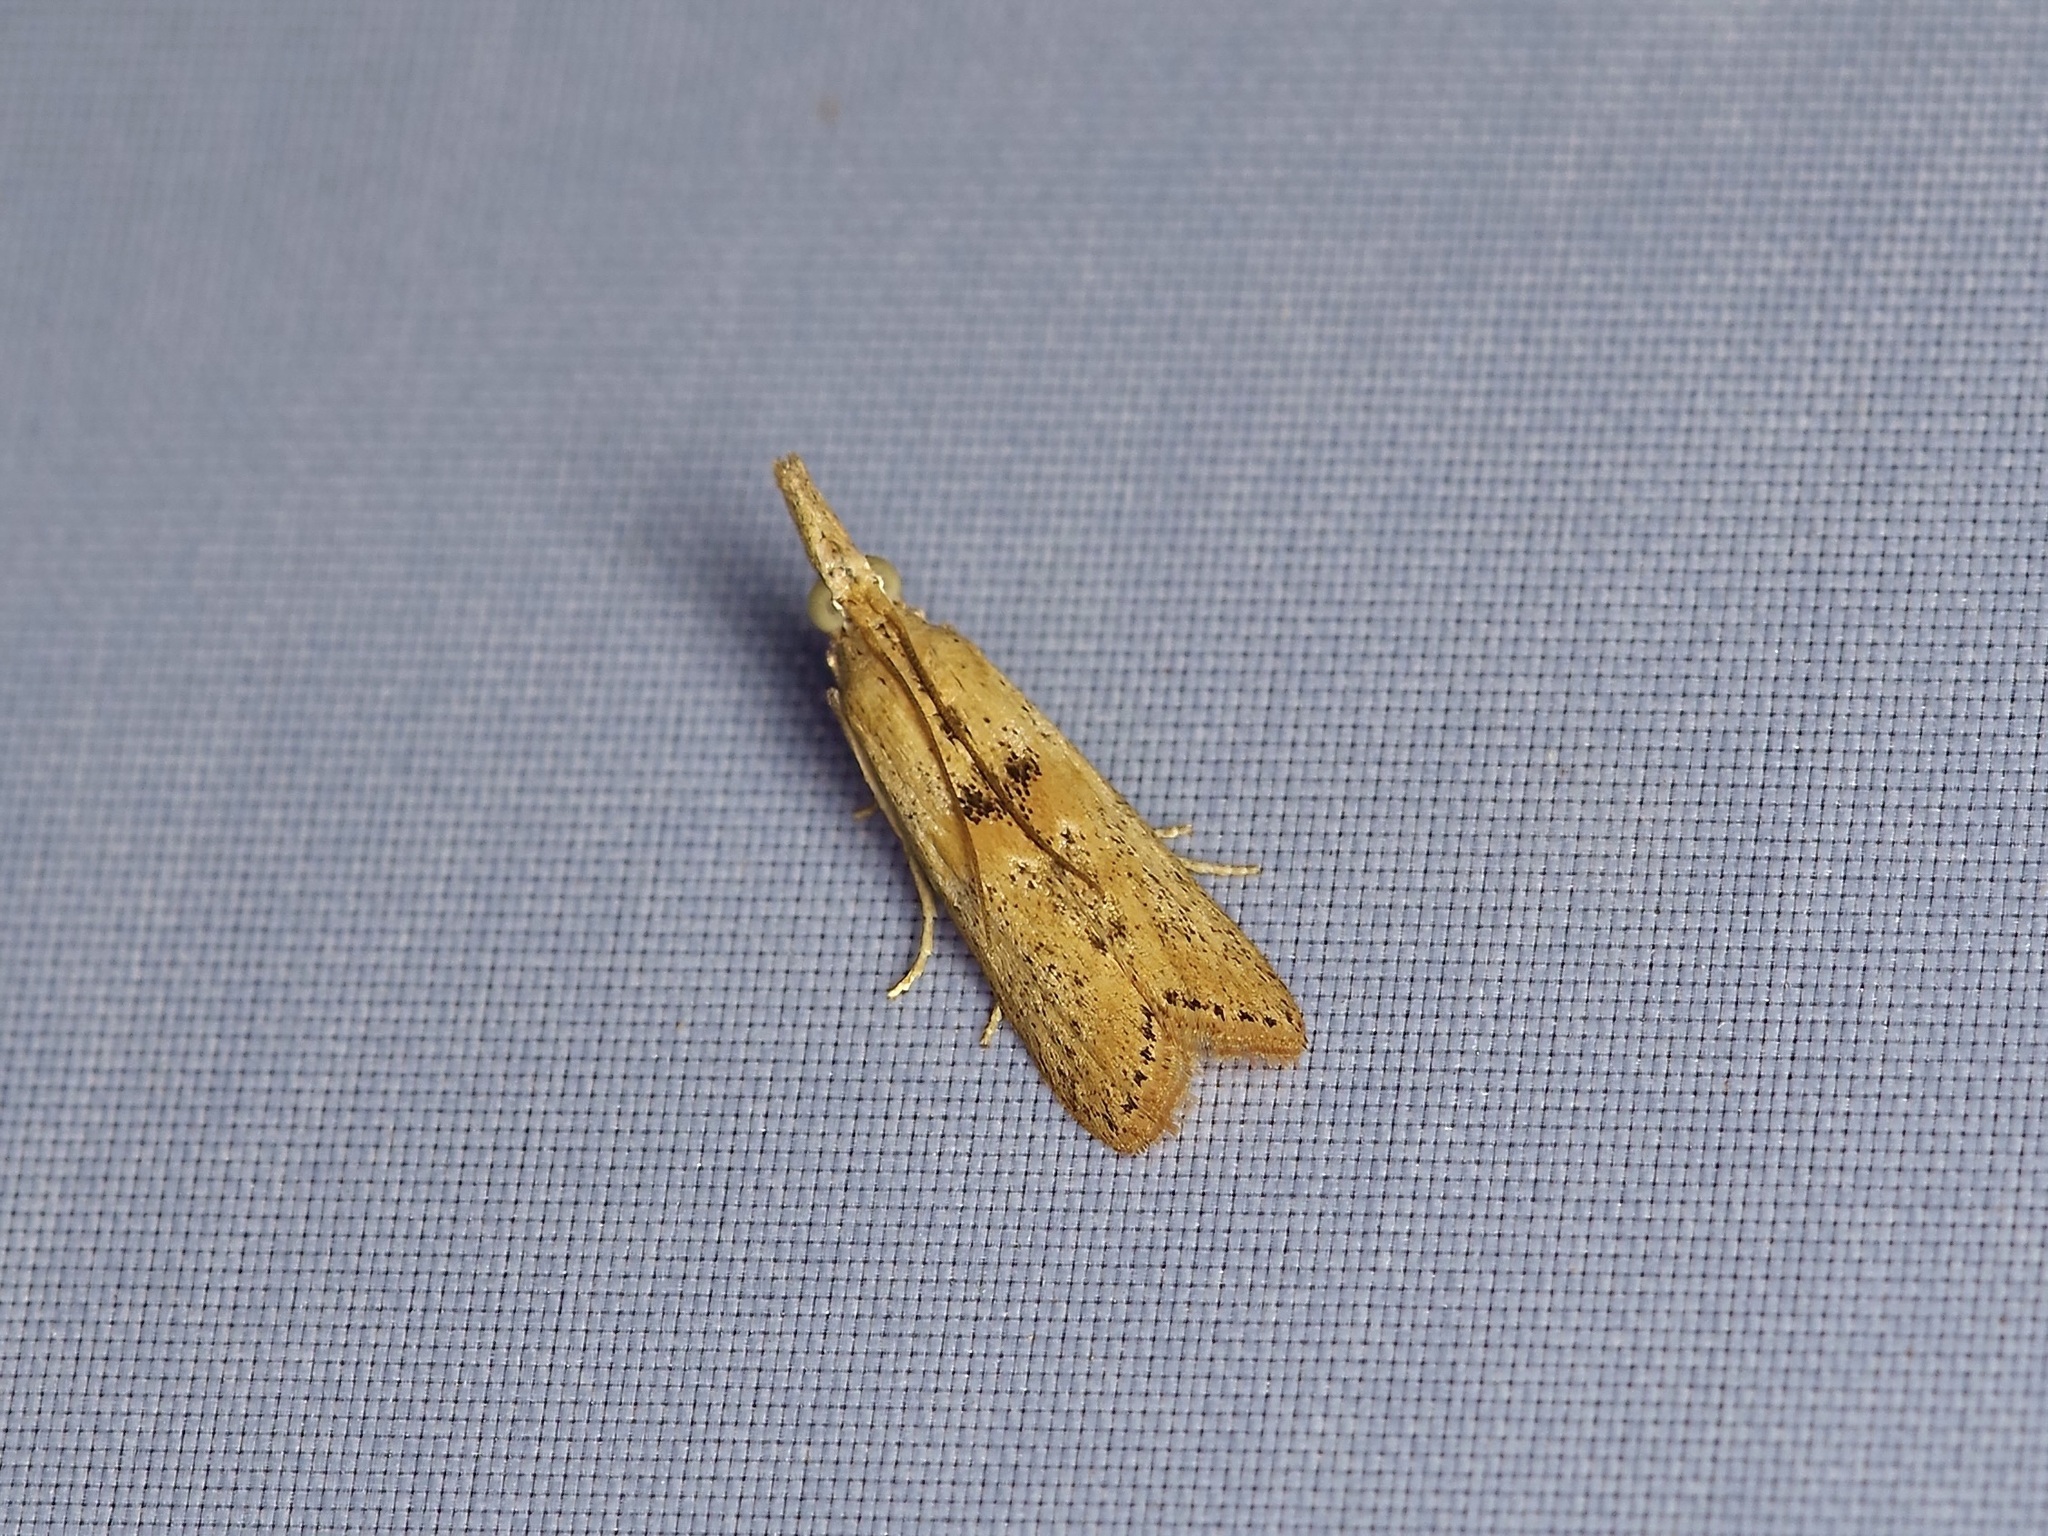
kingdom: Animalia
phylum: Arthropoda
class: Insecta
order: Lepidoptera
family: Pyralidae
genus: Macrorrhinia
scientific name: Macrorrhinia endonephele
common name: Alligator weed stemborer moth
